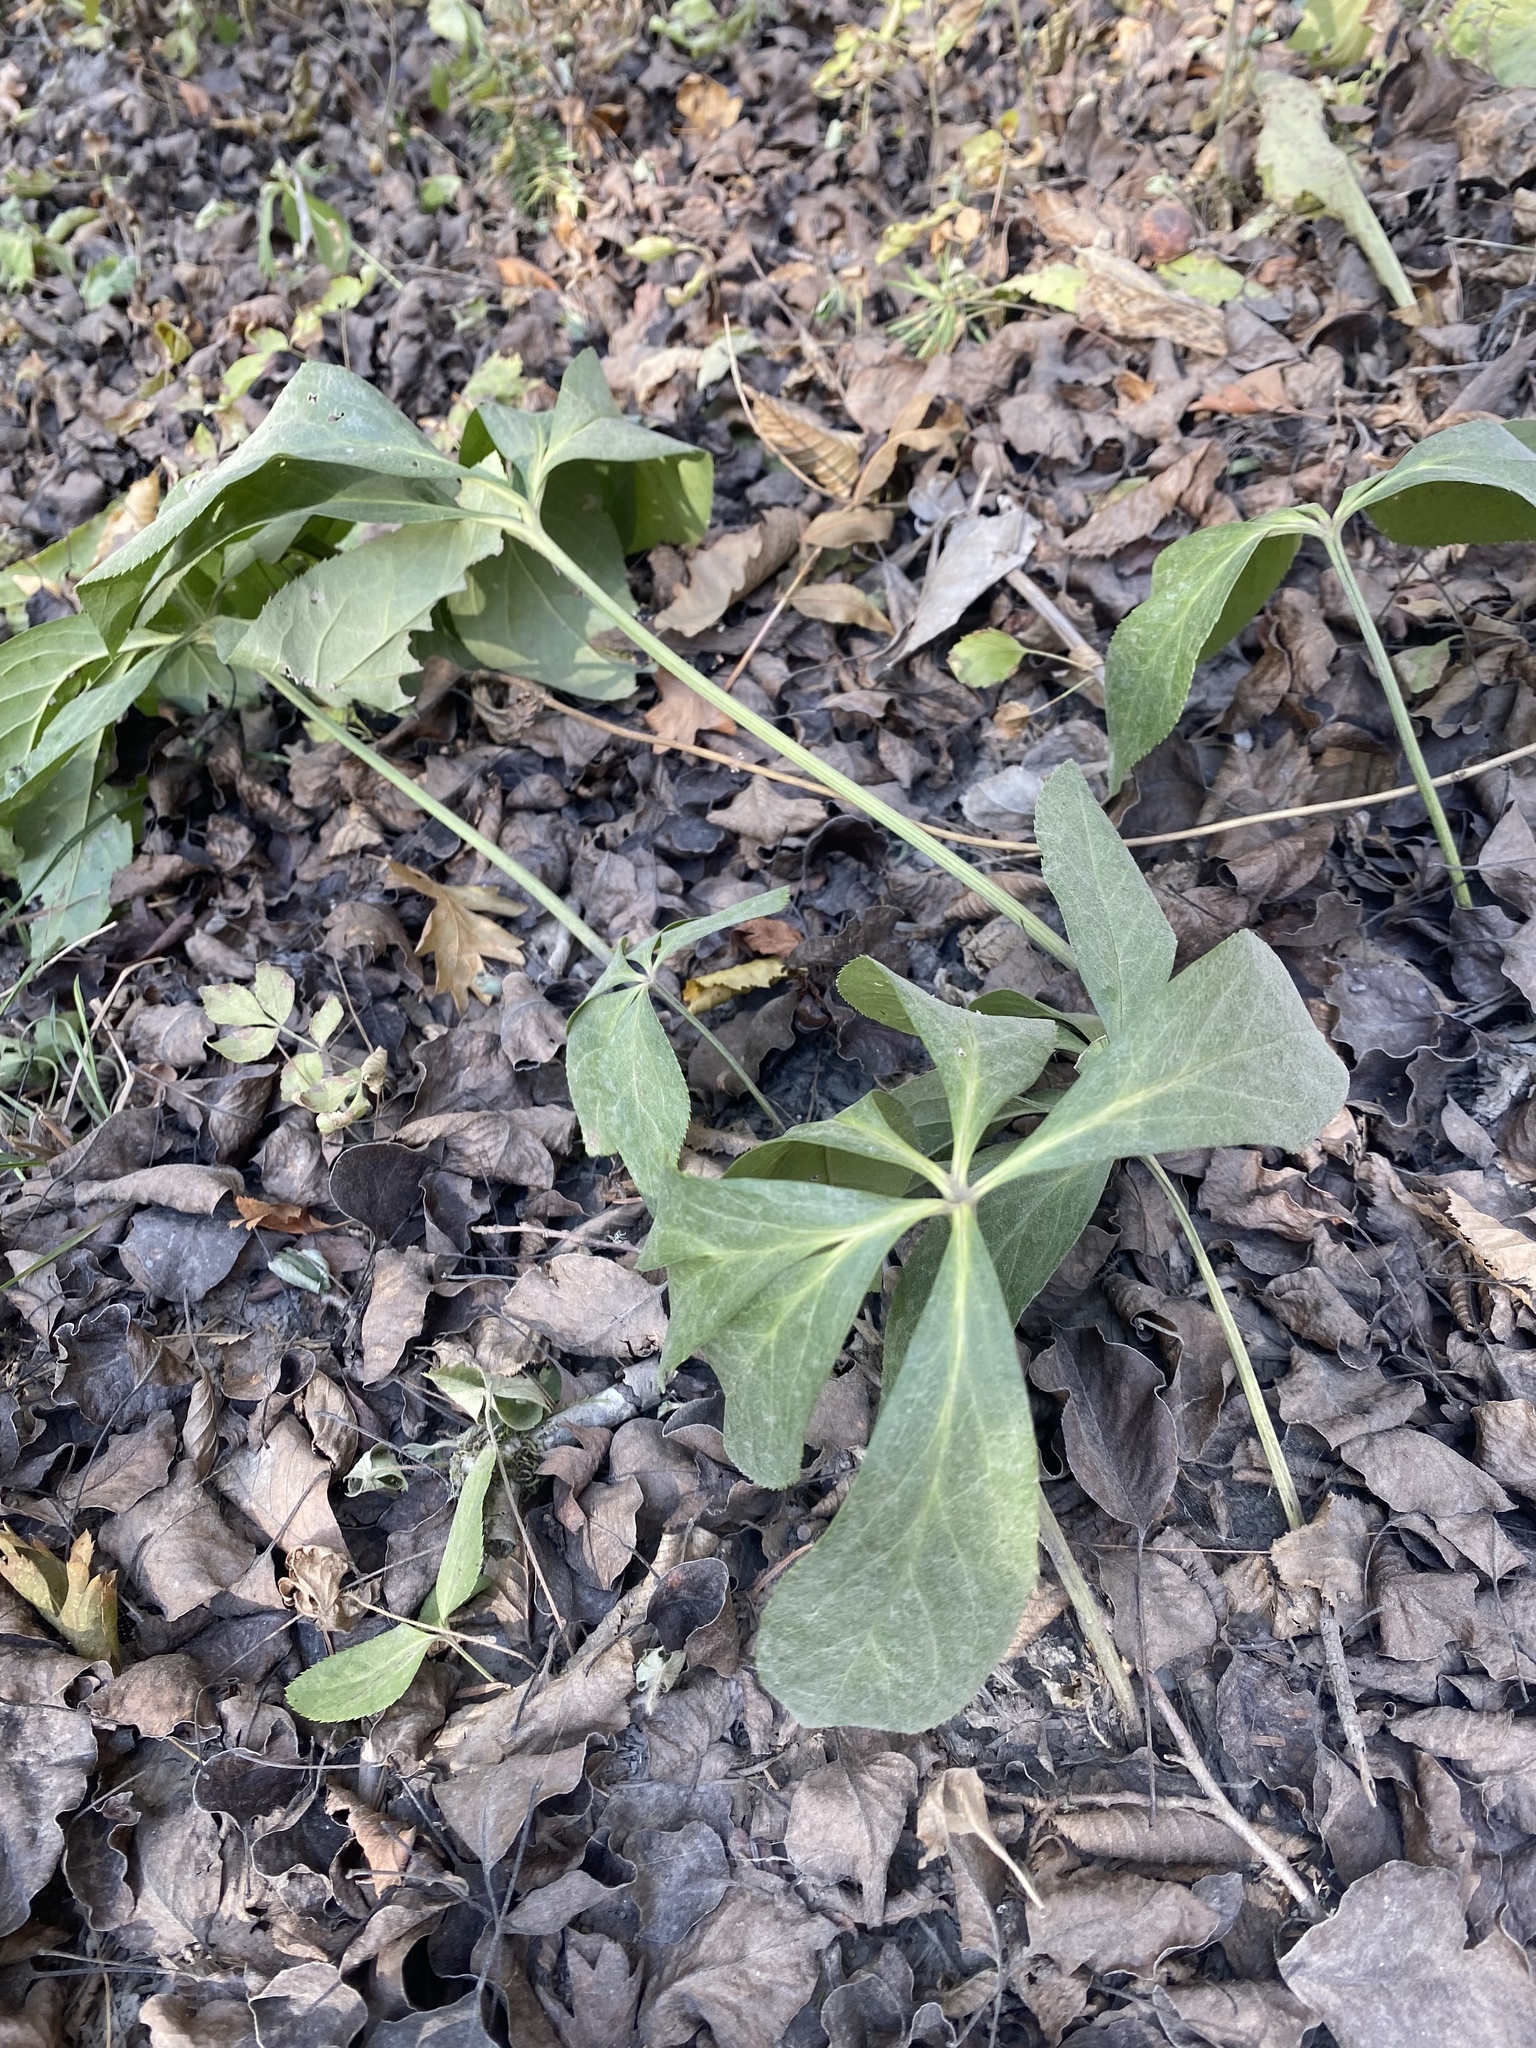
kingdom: Plantae
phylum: Tracheophyta
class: Magnoliopsida
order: Ranunculales
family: Ranunculaceae
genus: Helleborus
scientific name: Helleborus orientalis
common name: Lenten-rose
